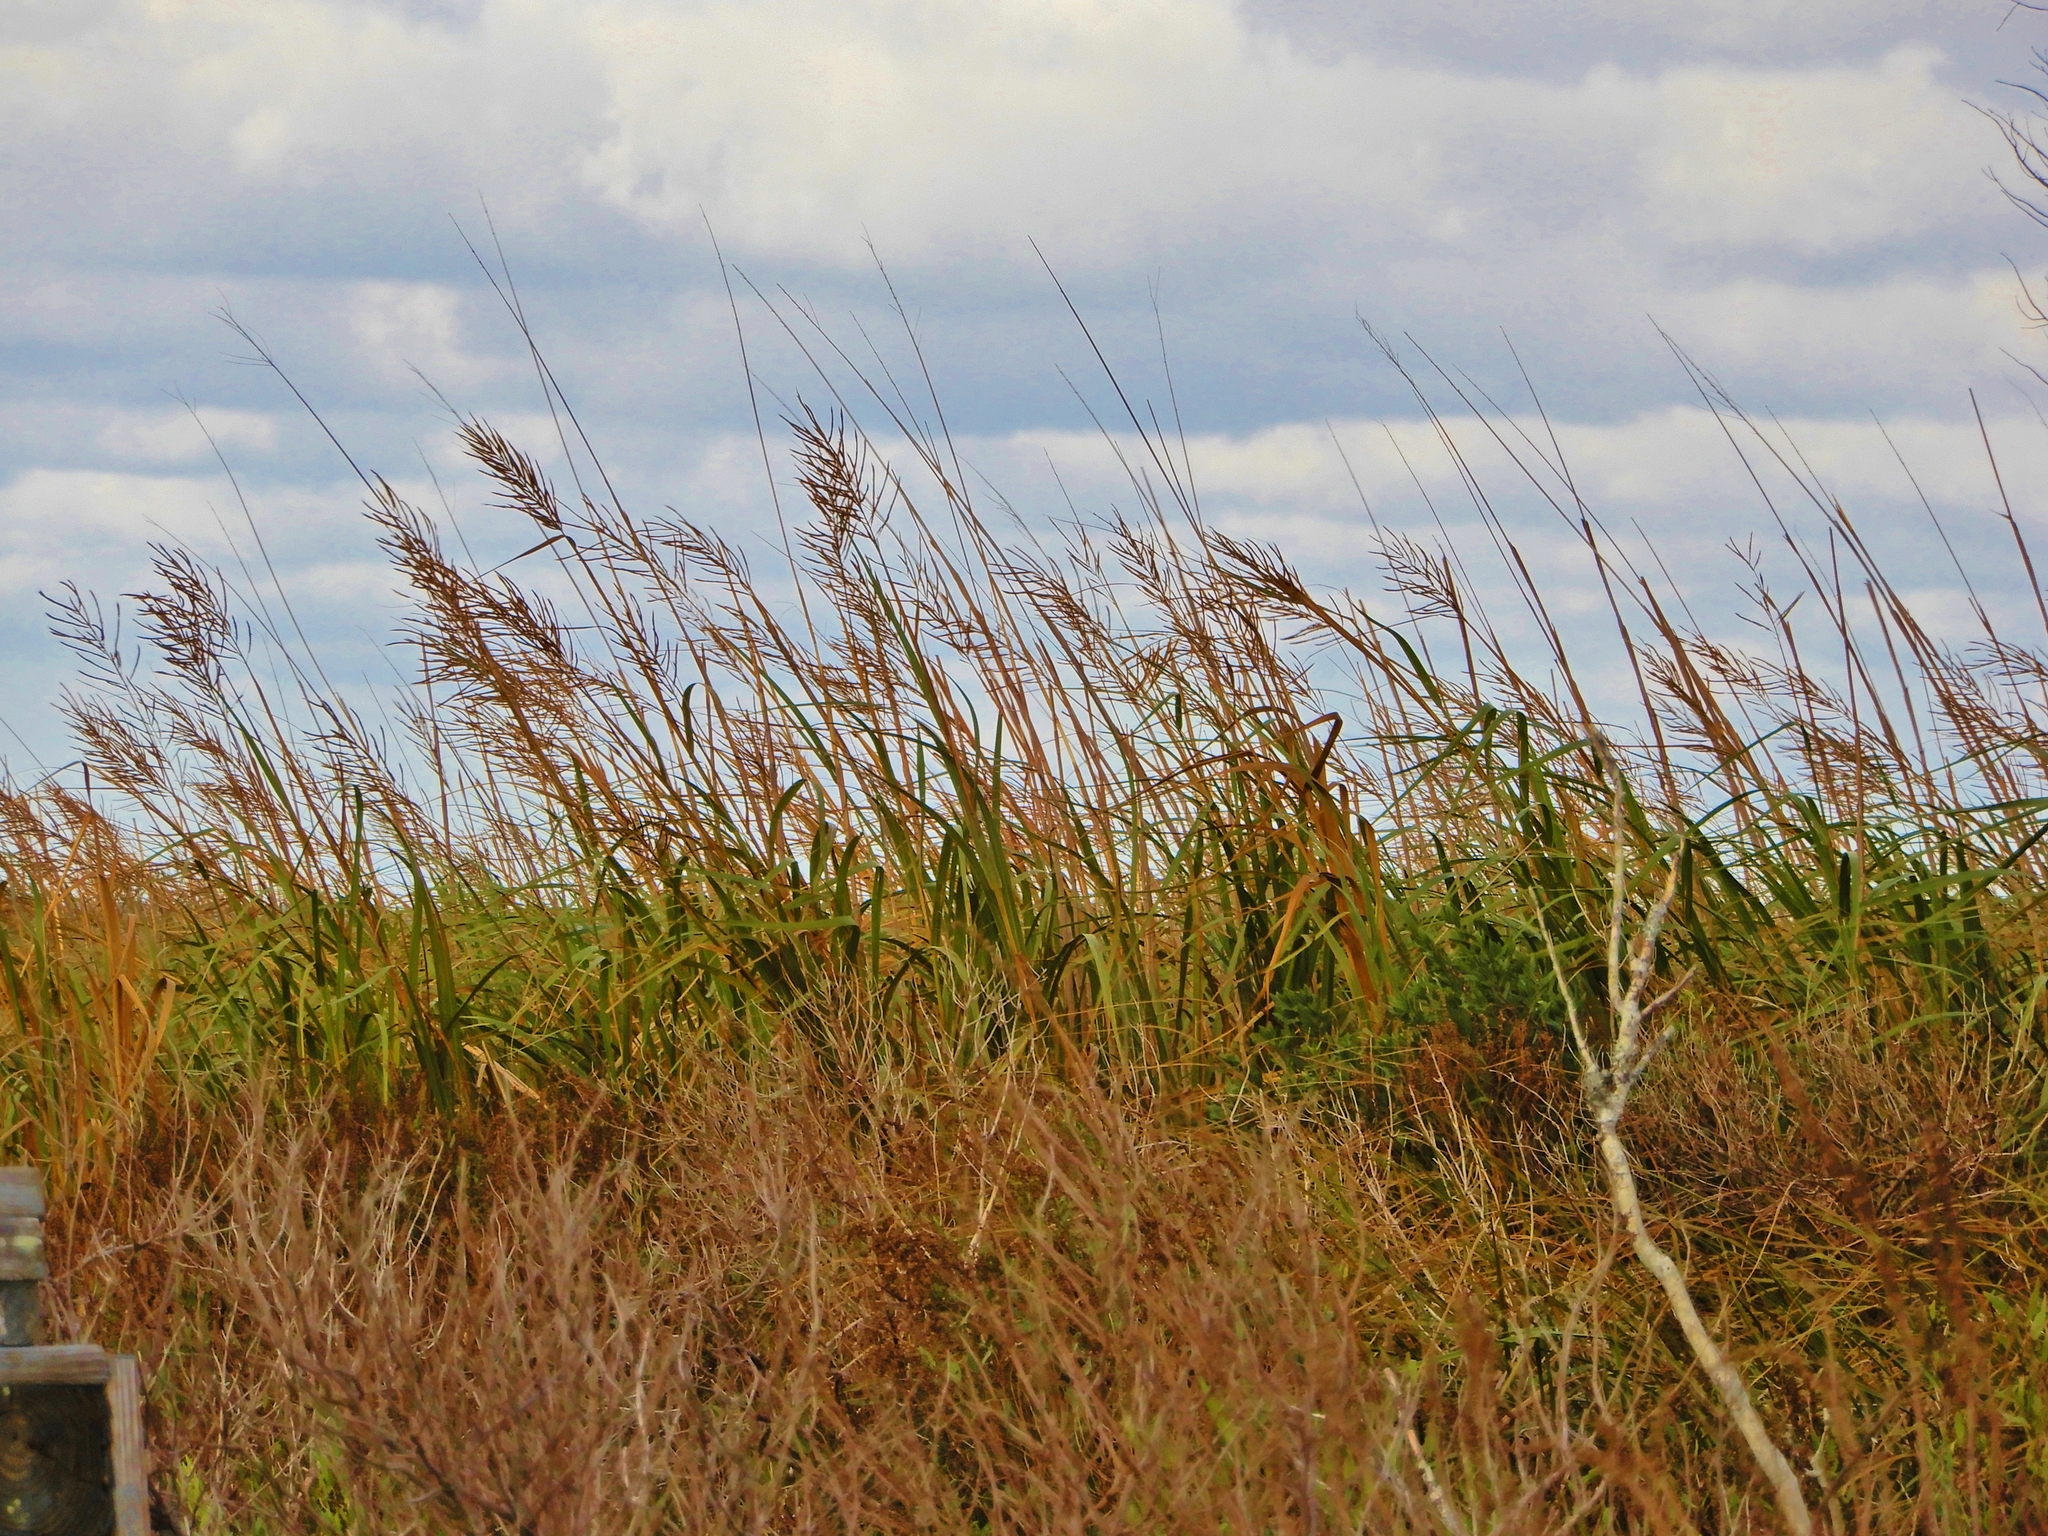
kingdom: Plantae
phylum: Tracheophyta
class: Liliopsida
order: Poales
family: Poaceae
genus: Sporobolus
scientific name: Sporobolus cynosuroides
